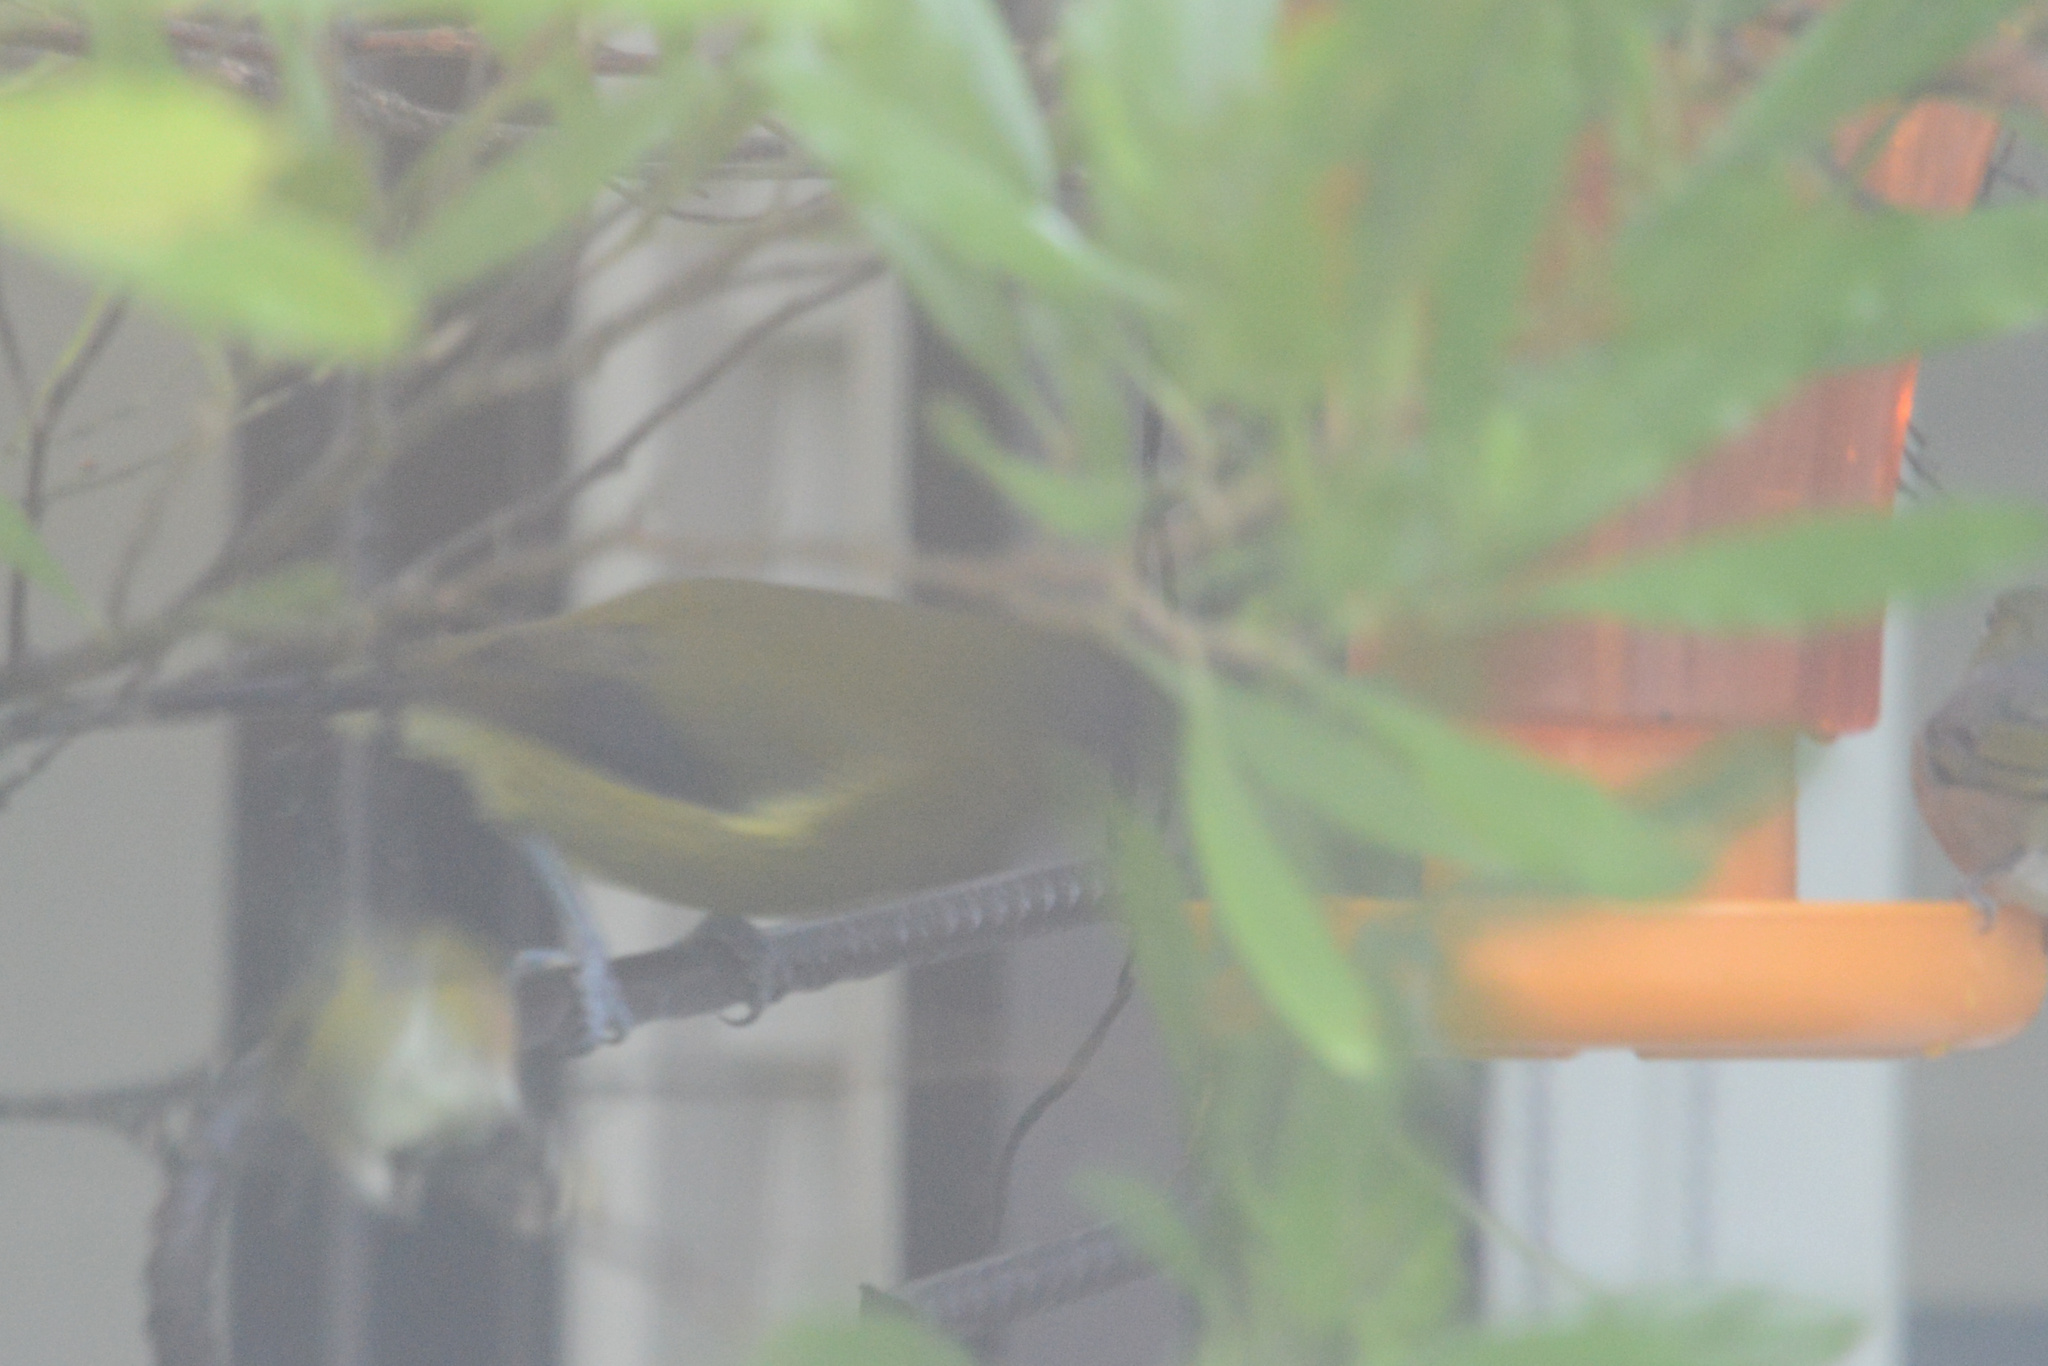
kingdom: Animalia
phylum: Chordata
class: Aves
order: Passeriformes
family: Meliphagidae
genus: Anthornis
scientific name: Anthornis melanura
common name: New zealand bellbird
